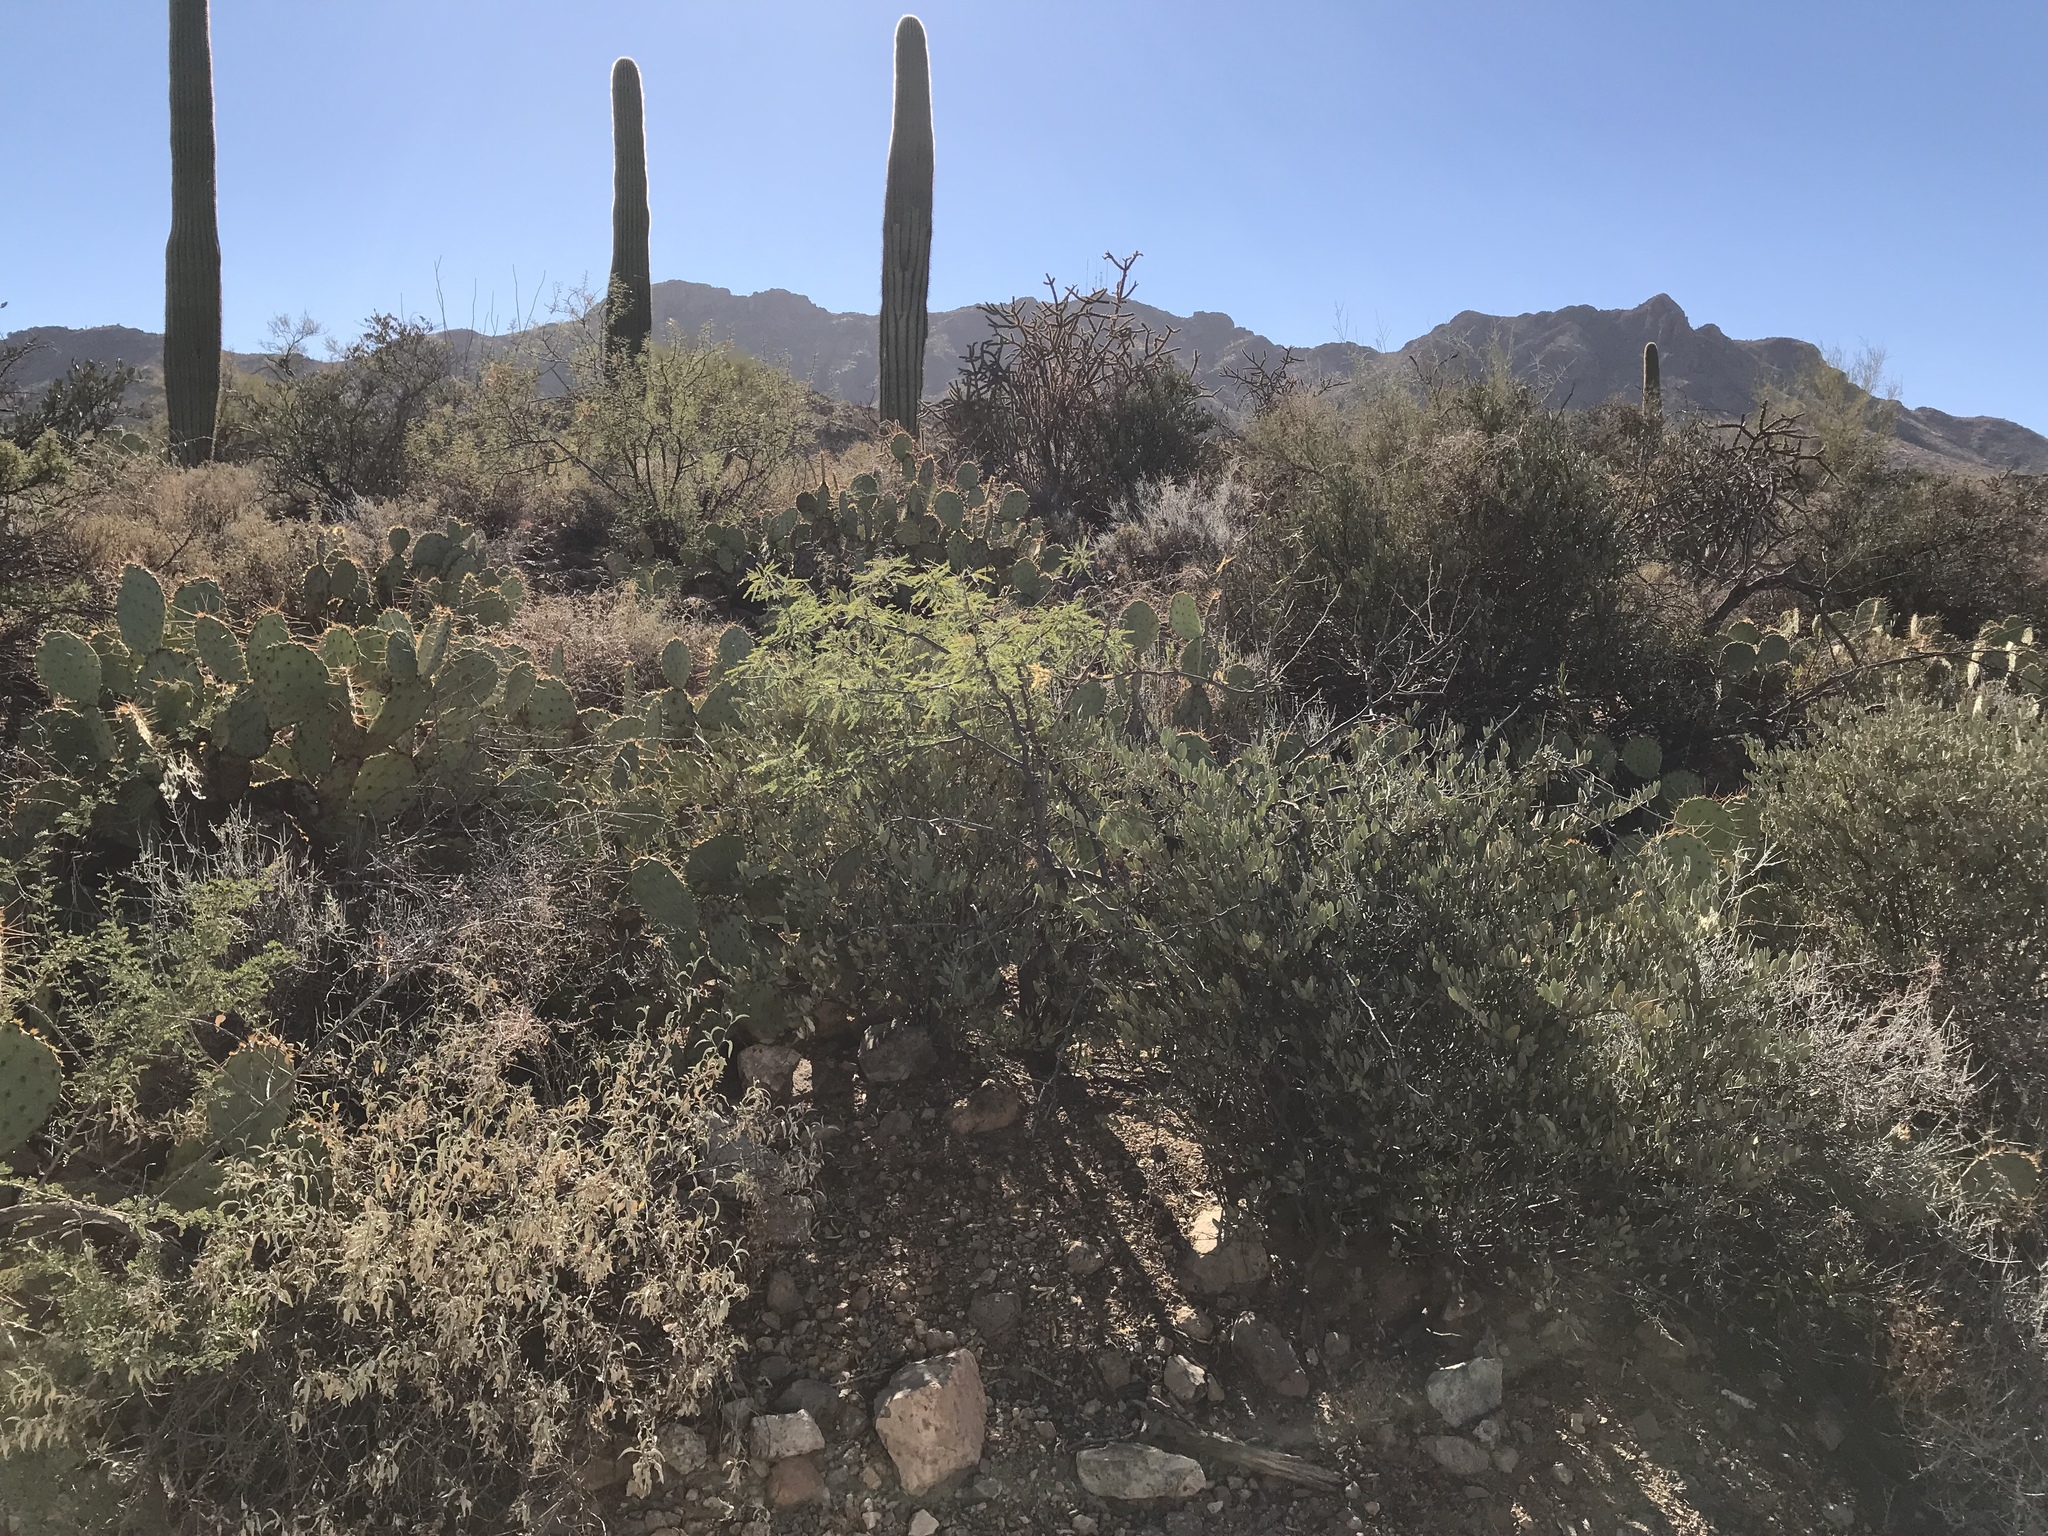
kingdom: Plantae
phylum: Tracheophyta
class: Magnoliopsida
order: Caryophyllales
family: Simmondsiaceae
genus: Simmondsia
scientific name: Simmondsia chinensis
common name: Jojoba
